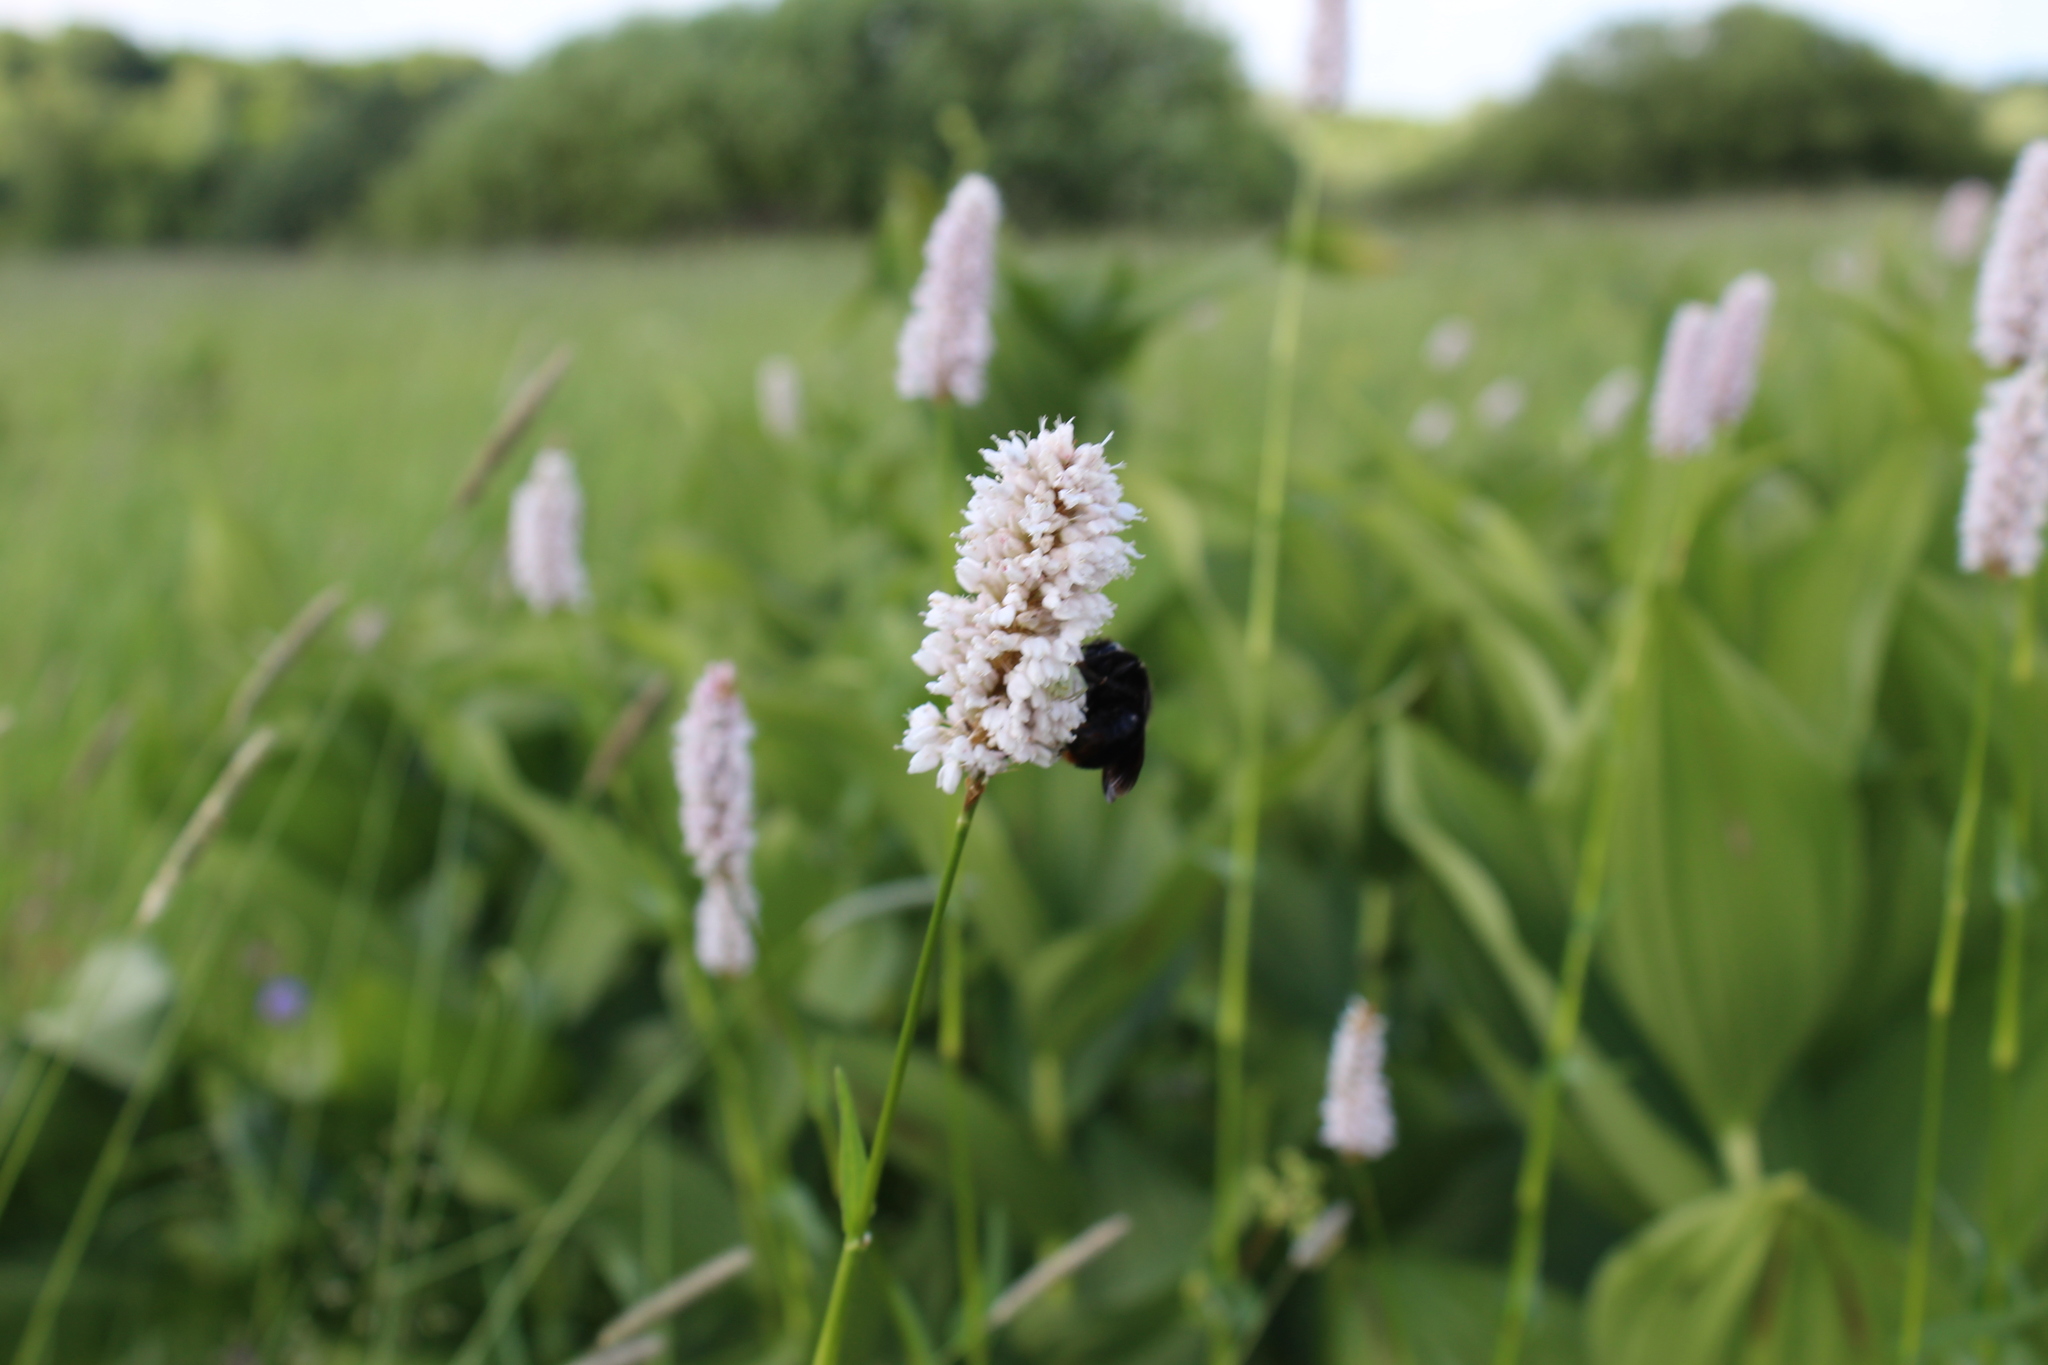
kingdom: Plantae
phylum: Tracheophyta
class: Magnoliopsida
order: Caryophyllales
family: Polygonaceae
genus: Bistorta
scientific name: Bistorta officinalis
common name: Common bistort
